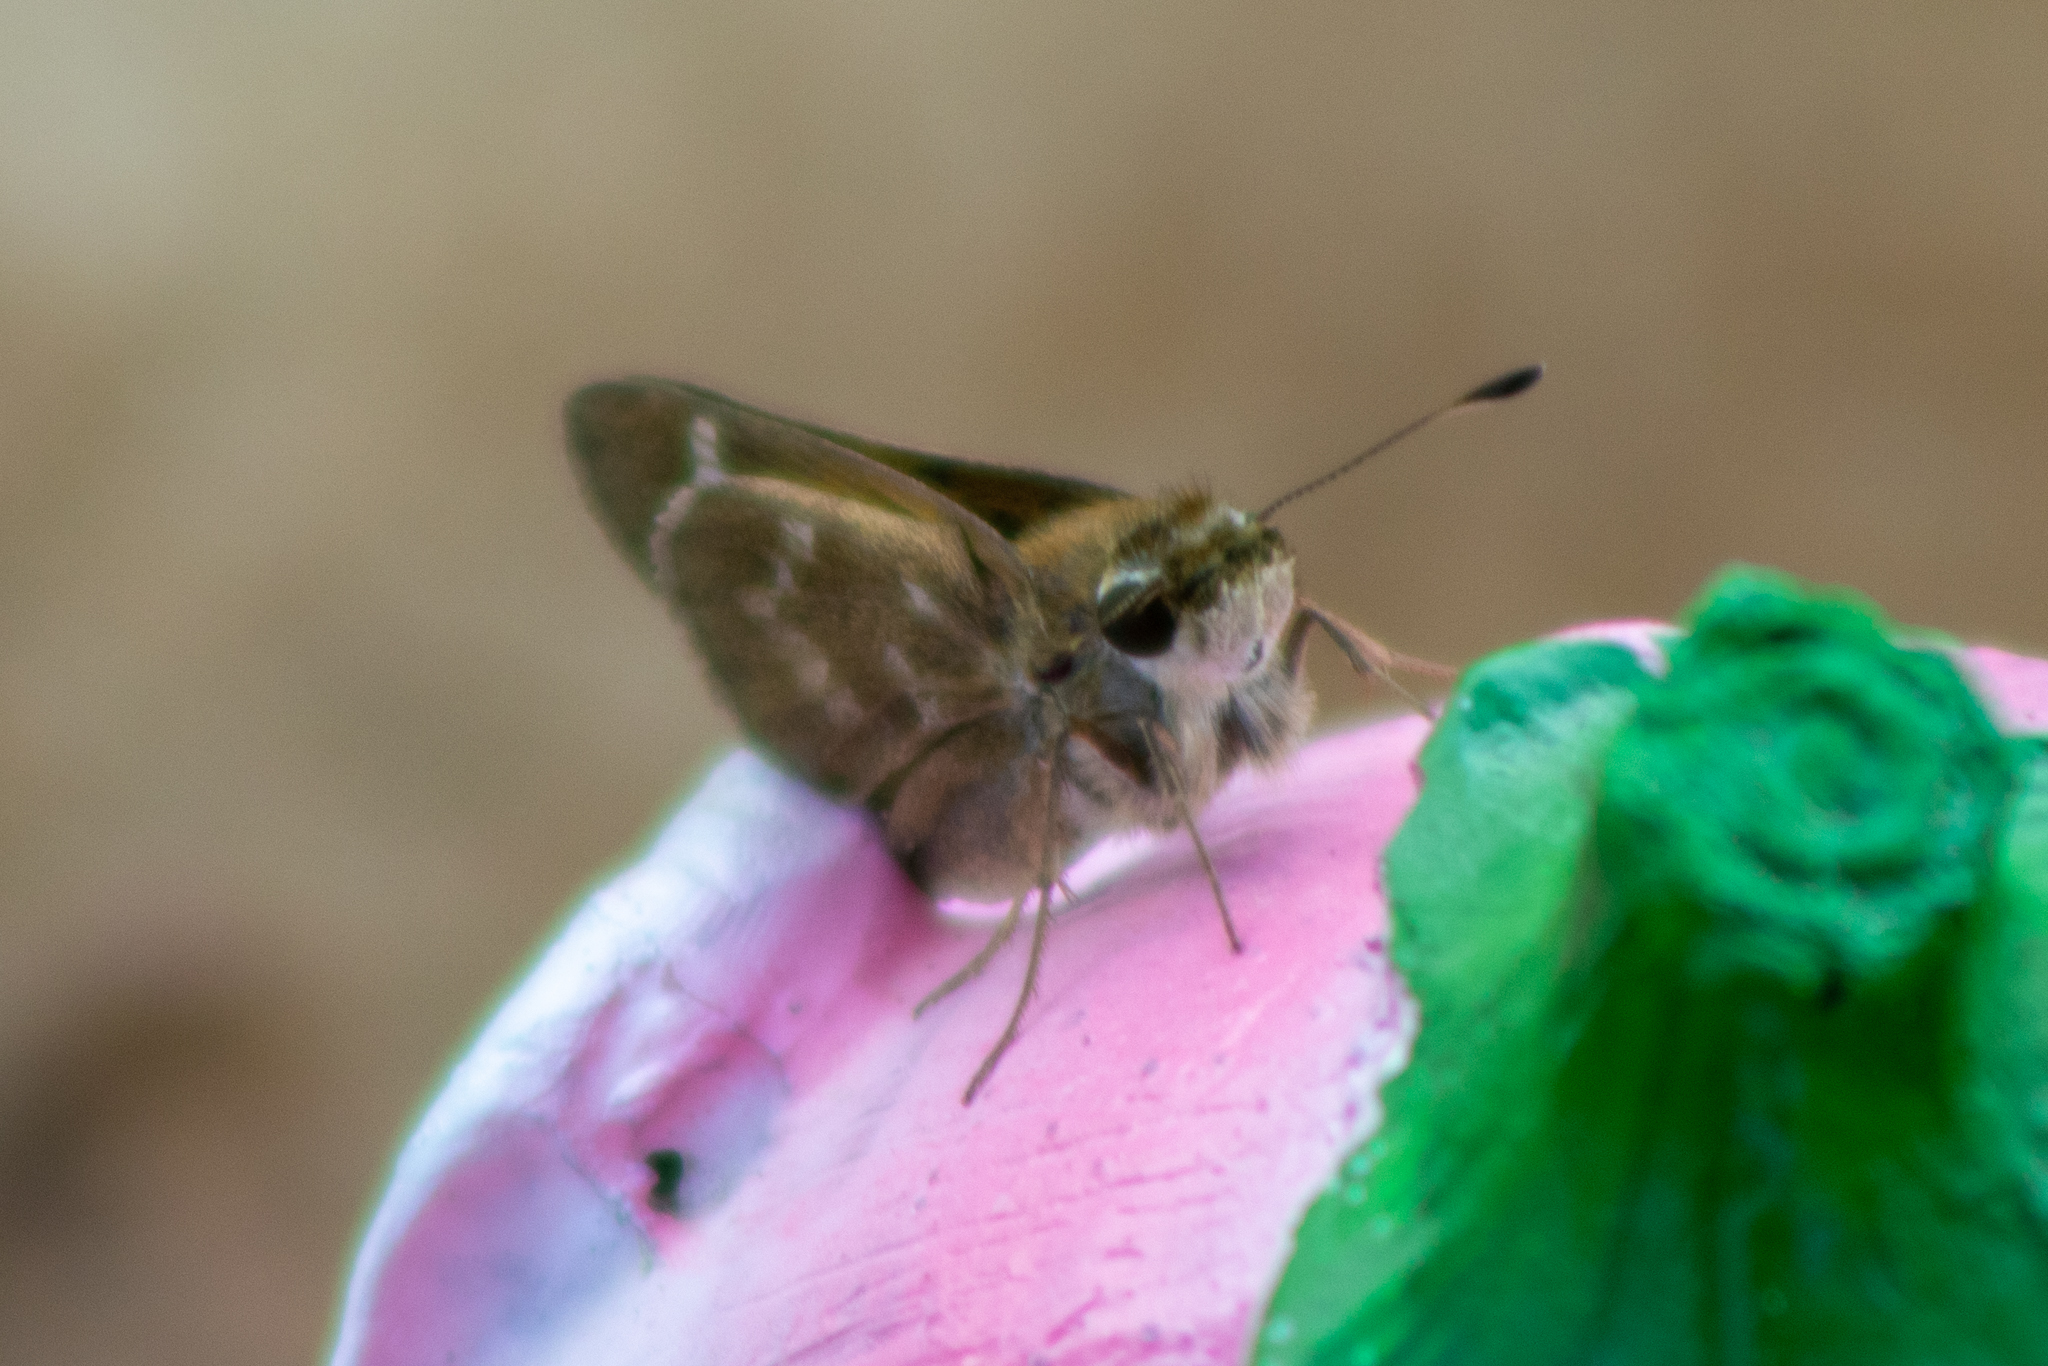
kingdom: Animalia
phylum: Arthropoda
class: Insecta
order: Lepidoptera
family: Hesperiidae
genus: Atalopedes
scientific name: Atalopedes
